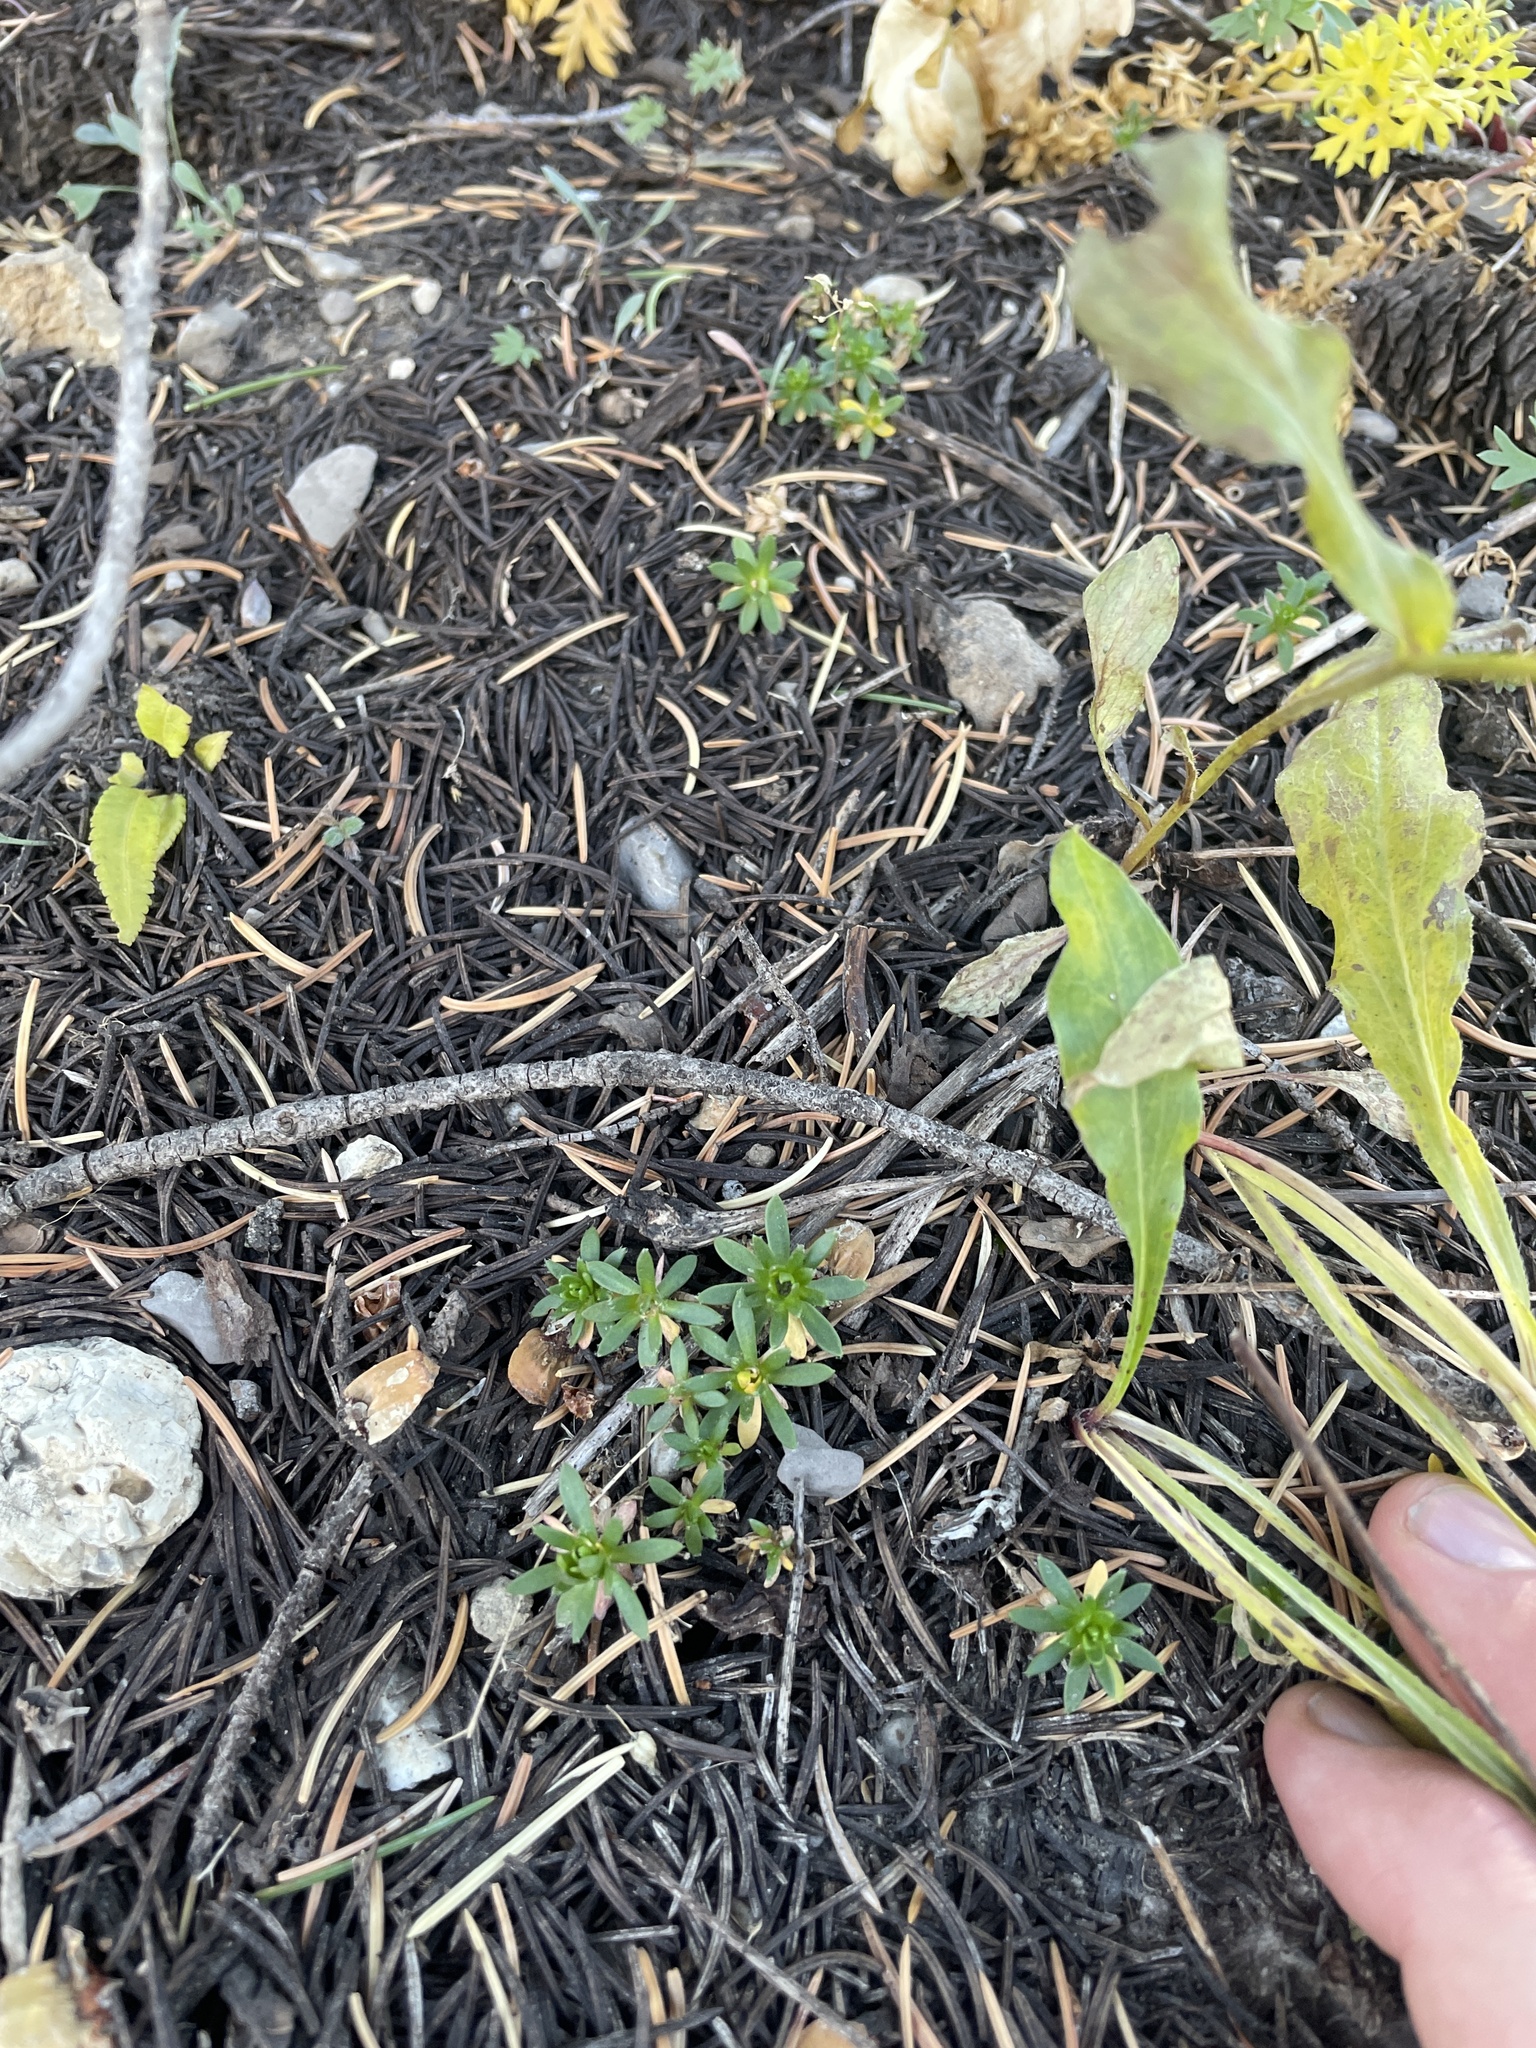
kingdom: Plantae
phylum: Tracheophyta
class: Magnoliopsida
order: Brassicales
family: Brassicaceae
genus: Draba
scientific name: Draba maguirei
